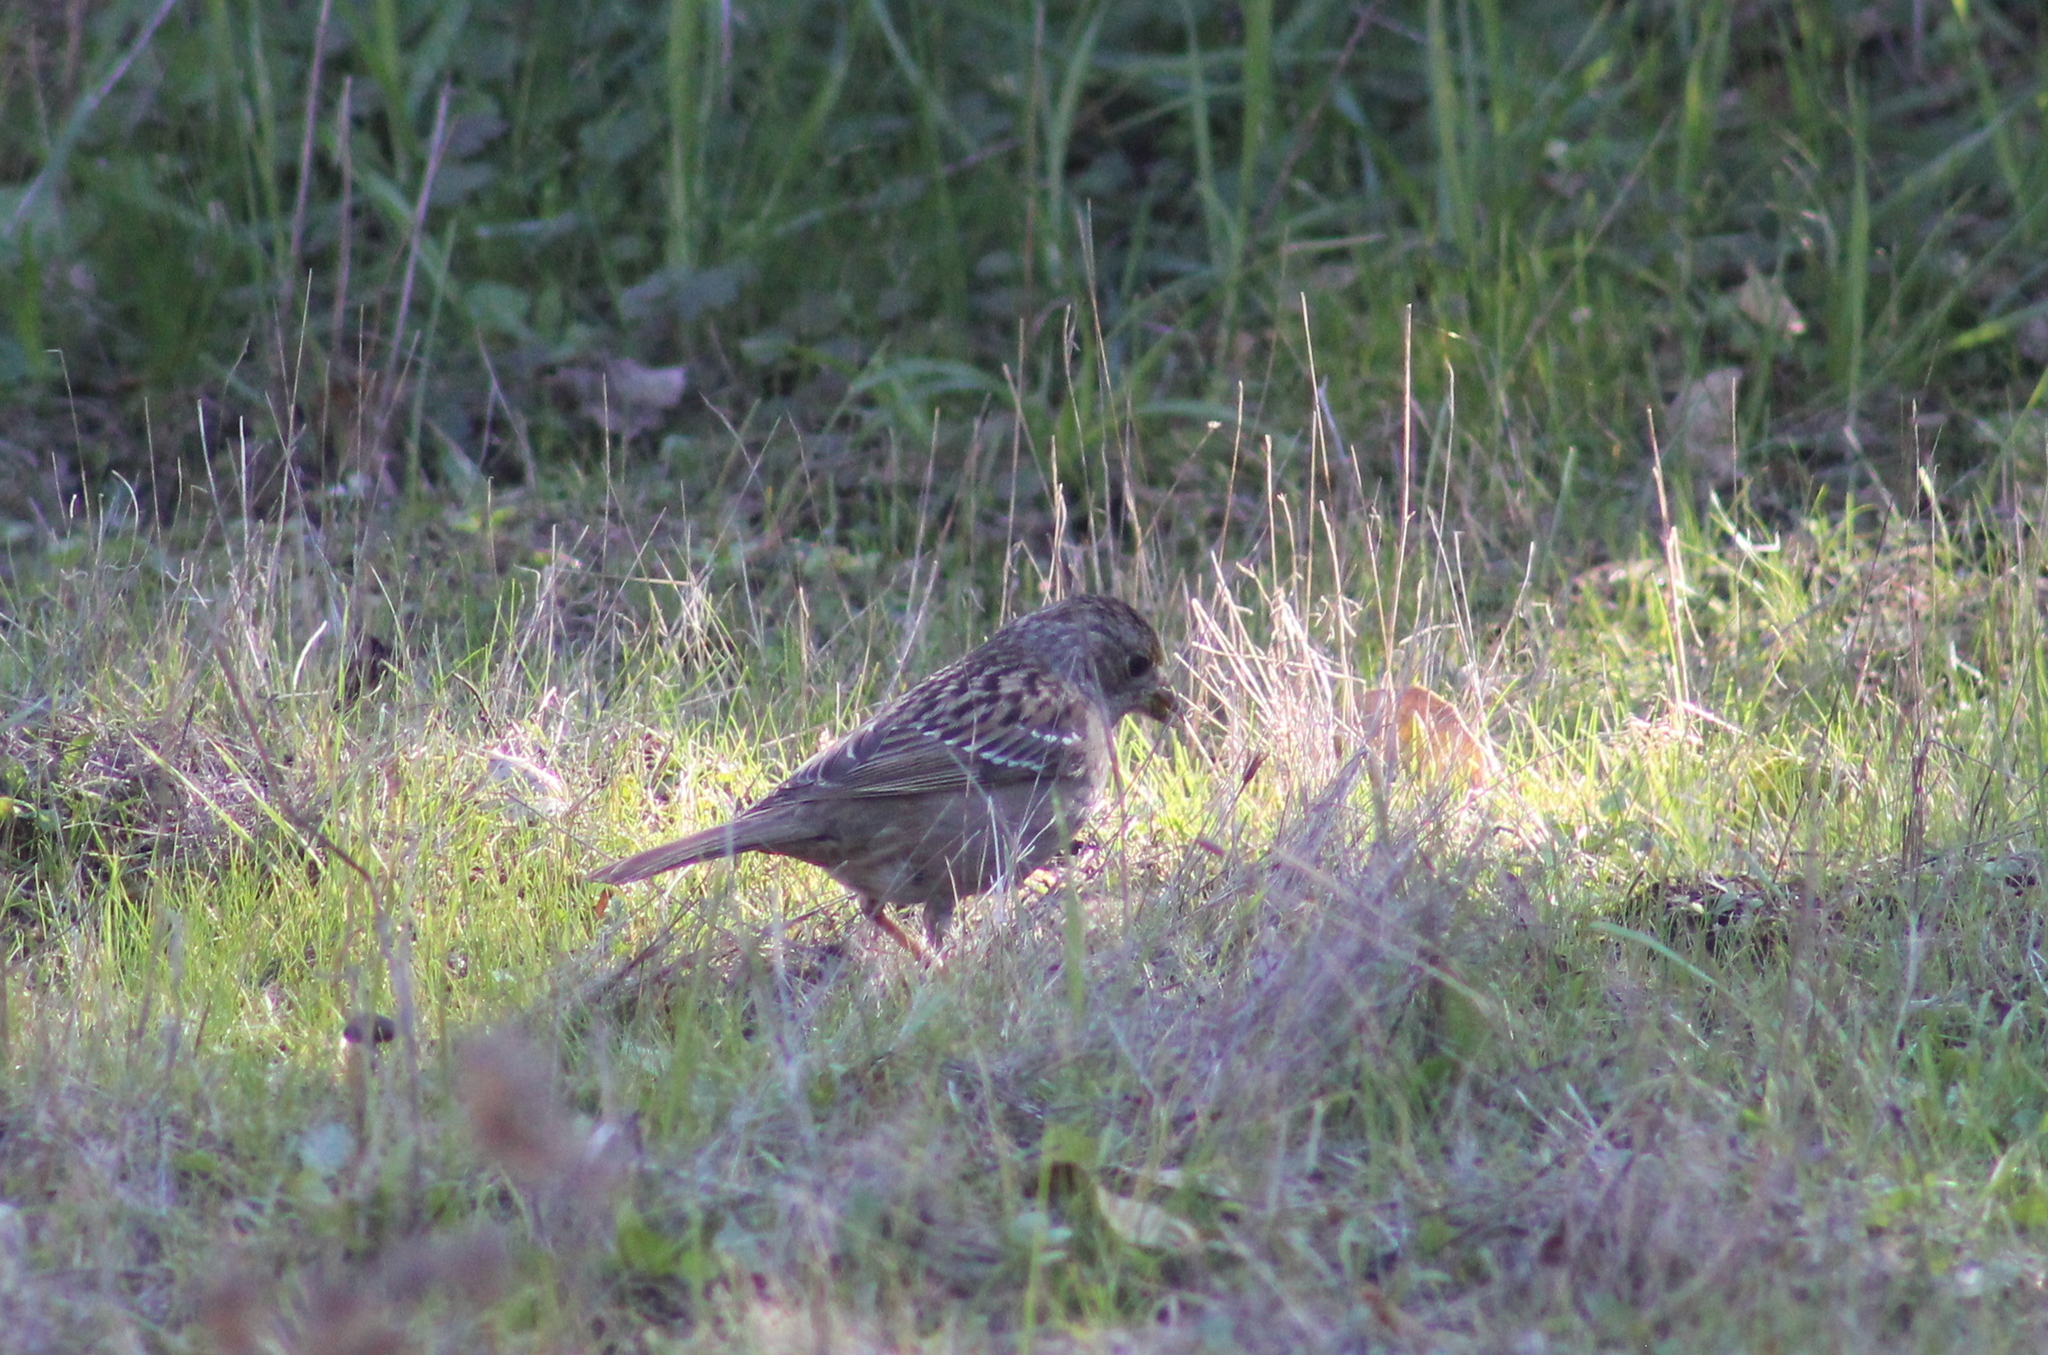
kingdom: Animalia
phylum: Chordata
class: Aves
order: Passeriformes
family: Passerellidae
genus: Zonotrichia
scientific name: Zonotrichia atricapilla
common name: Golden-crowned sparrow
